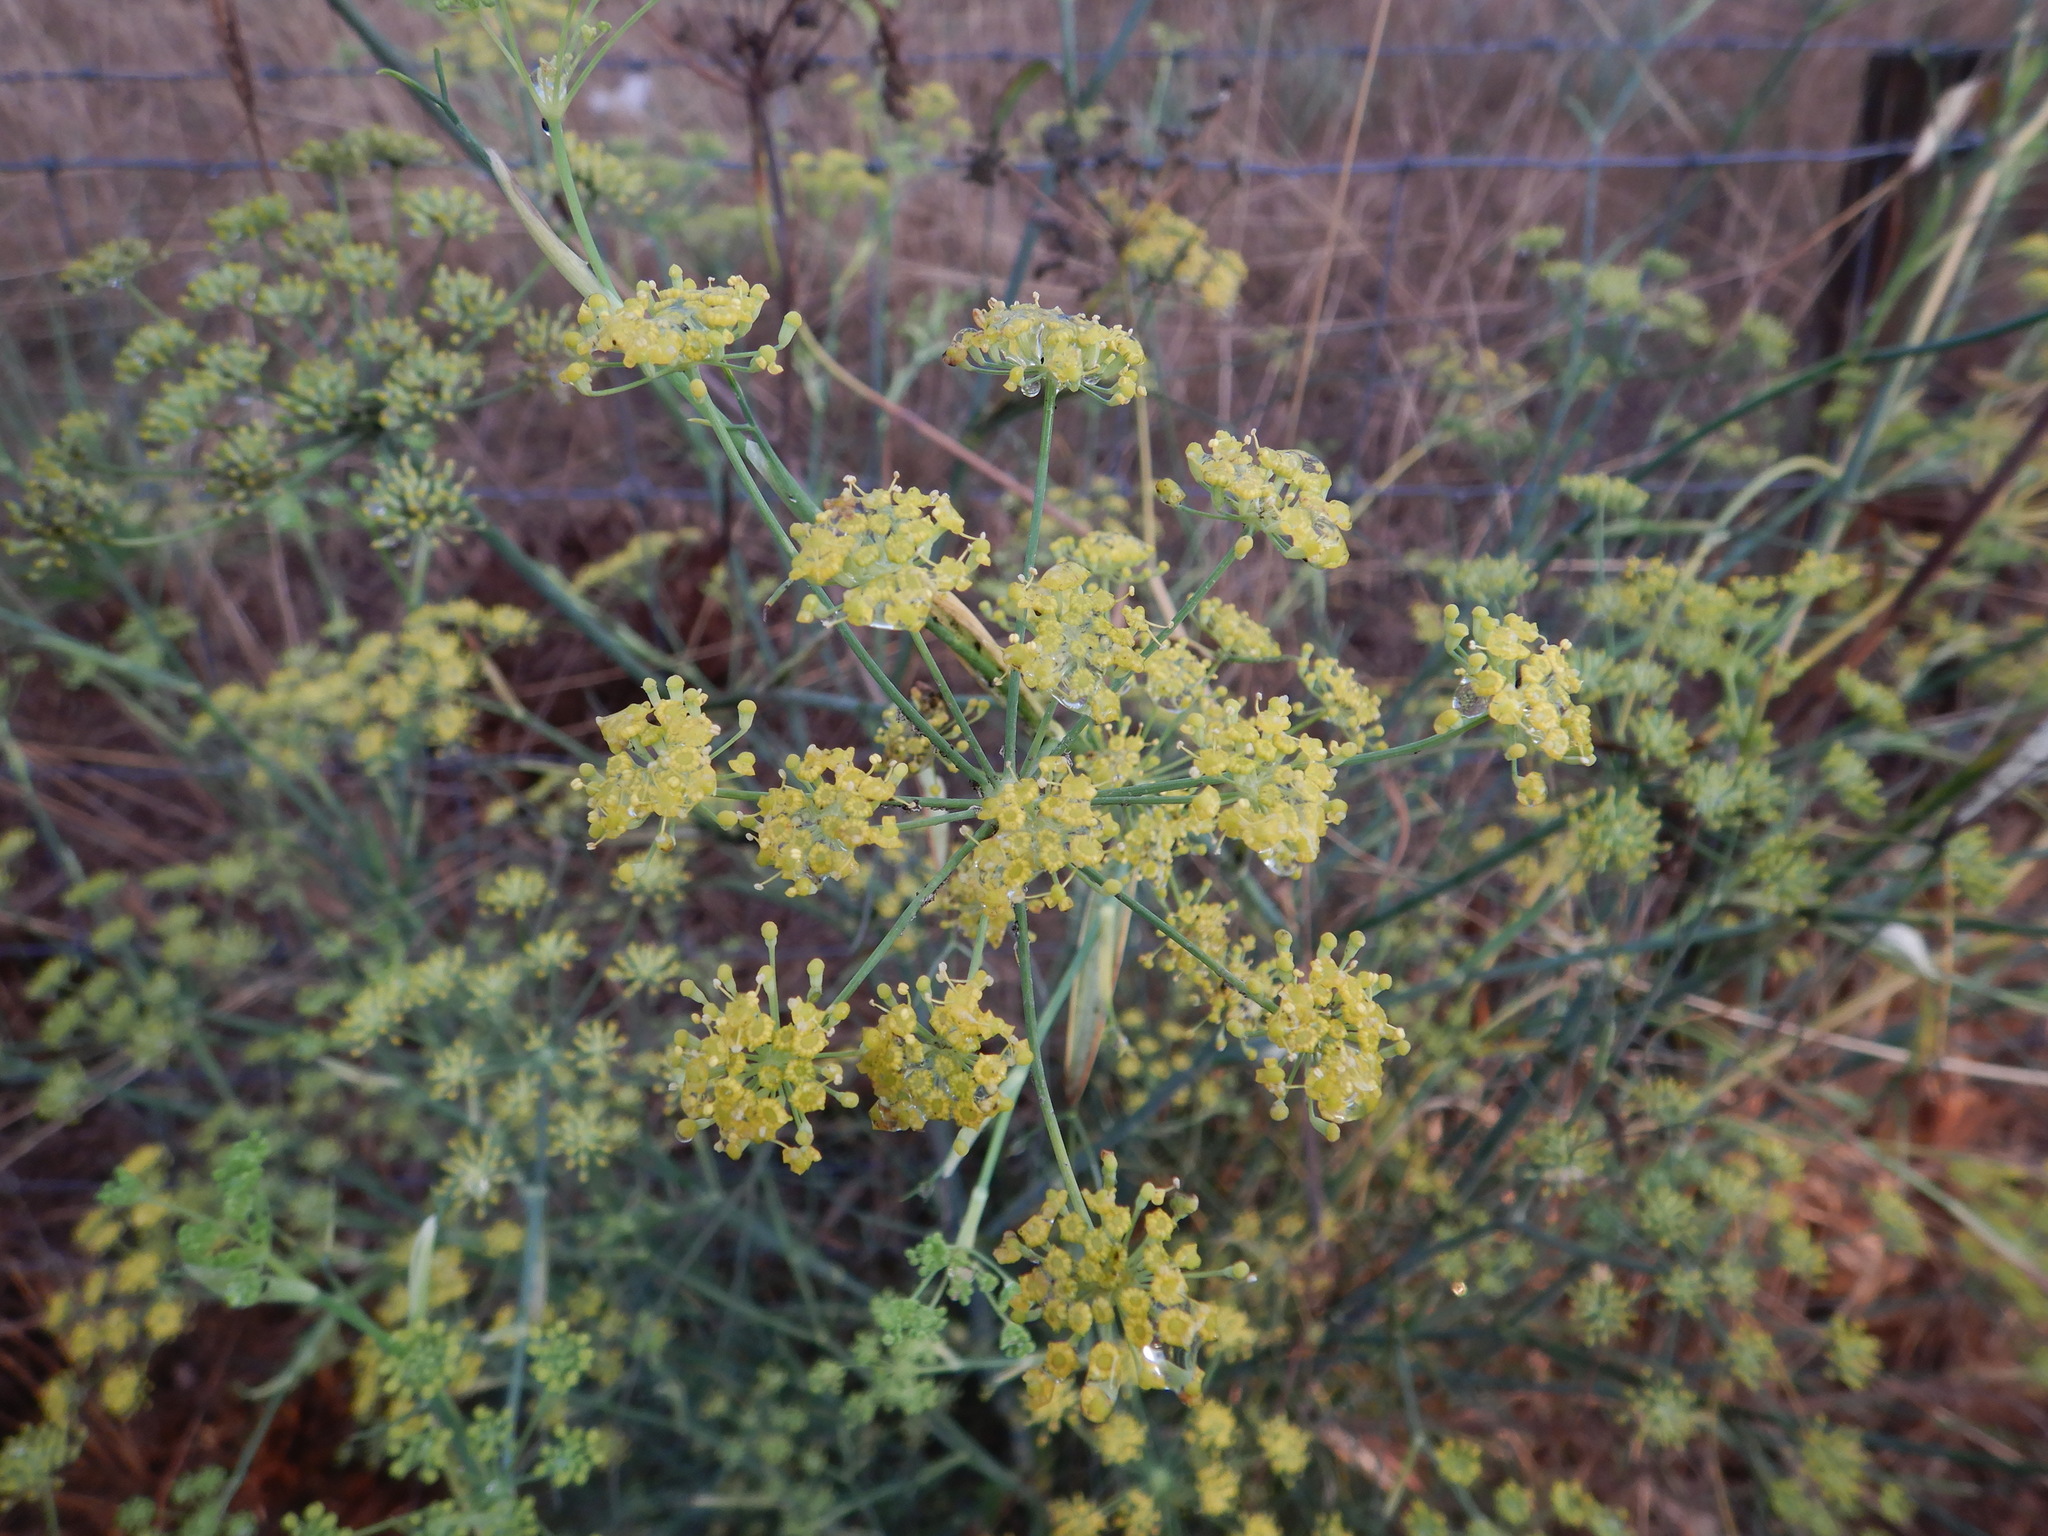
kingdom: Plantae
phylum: Tracheophyta
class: Magnoliopsida
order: Apiales
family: Apiaceae
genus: Foeniculum
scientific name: Foeniculum vulgare
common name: Fennel
